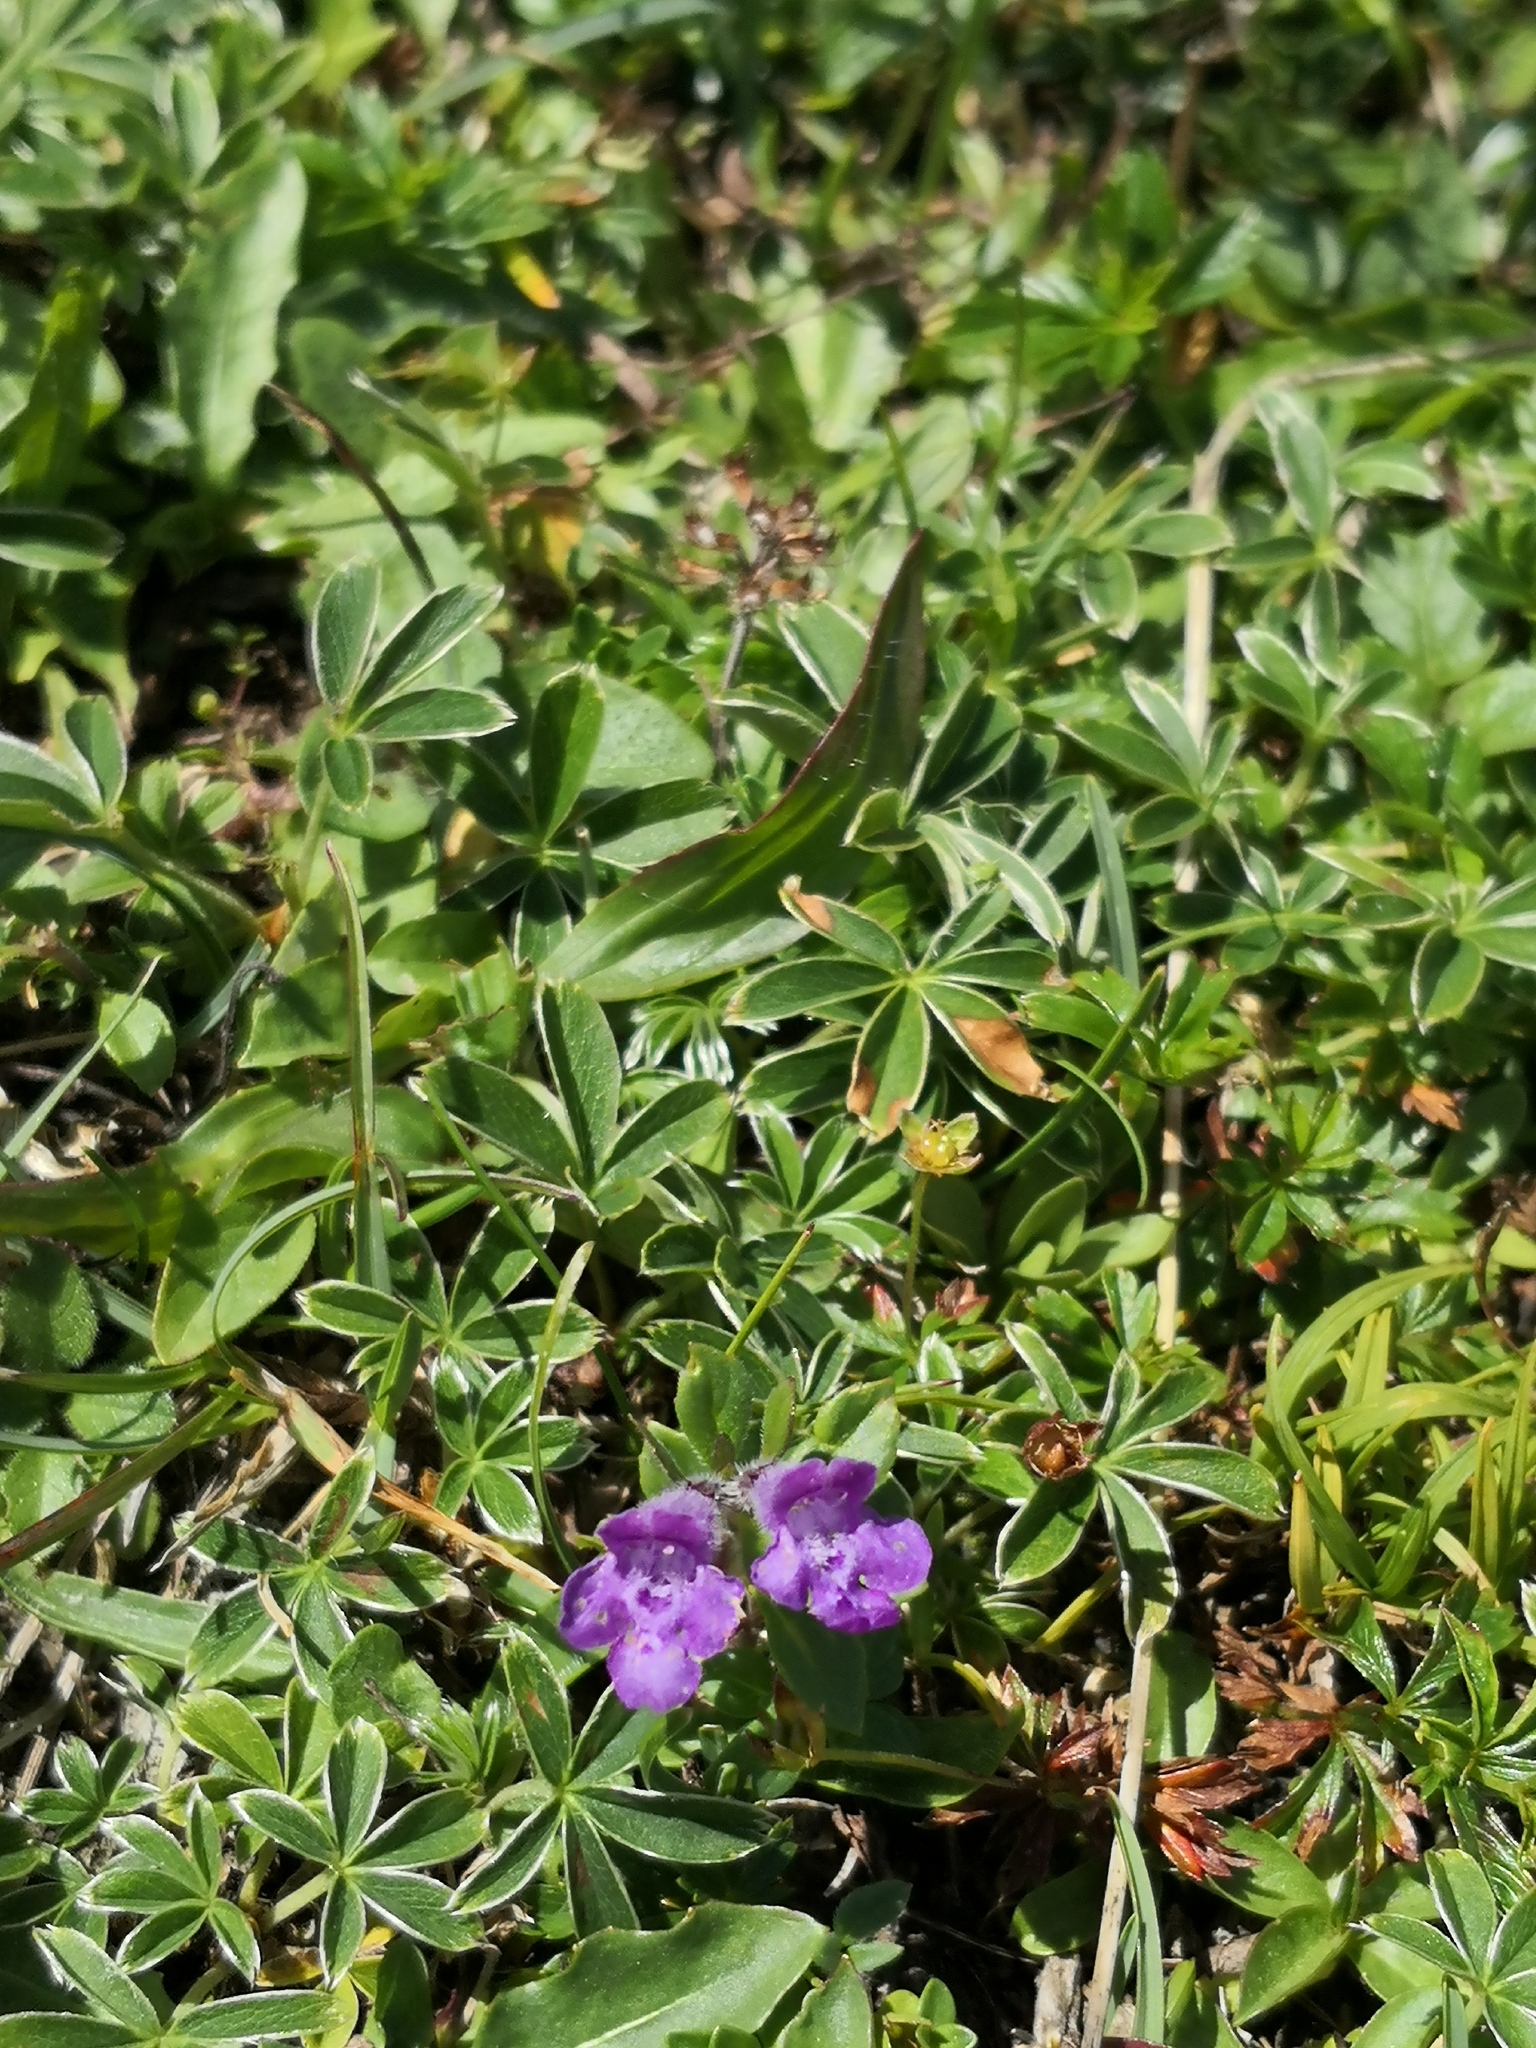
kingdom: Plantae
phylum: Tracheophyta
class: Magnoliopsida
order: Lamiales
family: Lamiaceae
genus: Clinopodium
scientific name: Clinopodium alpinum
